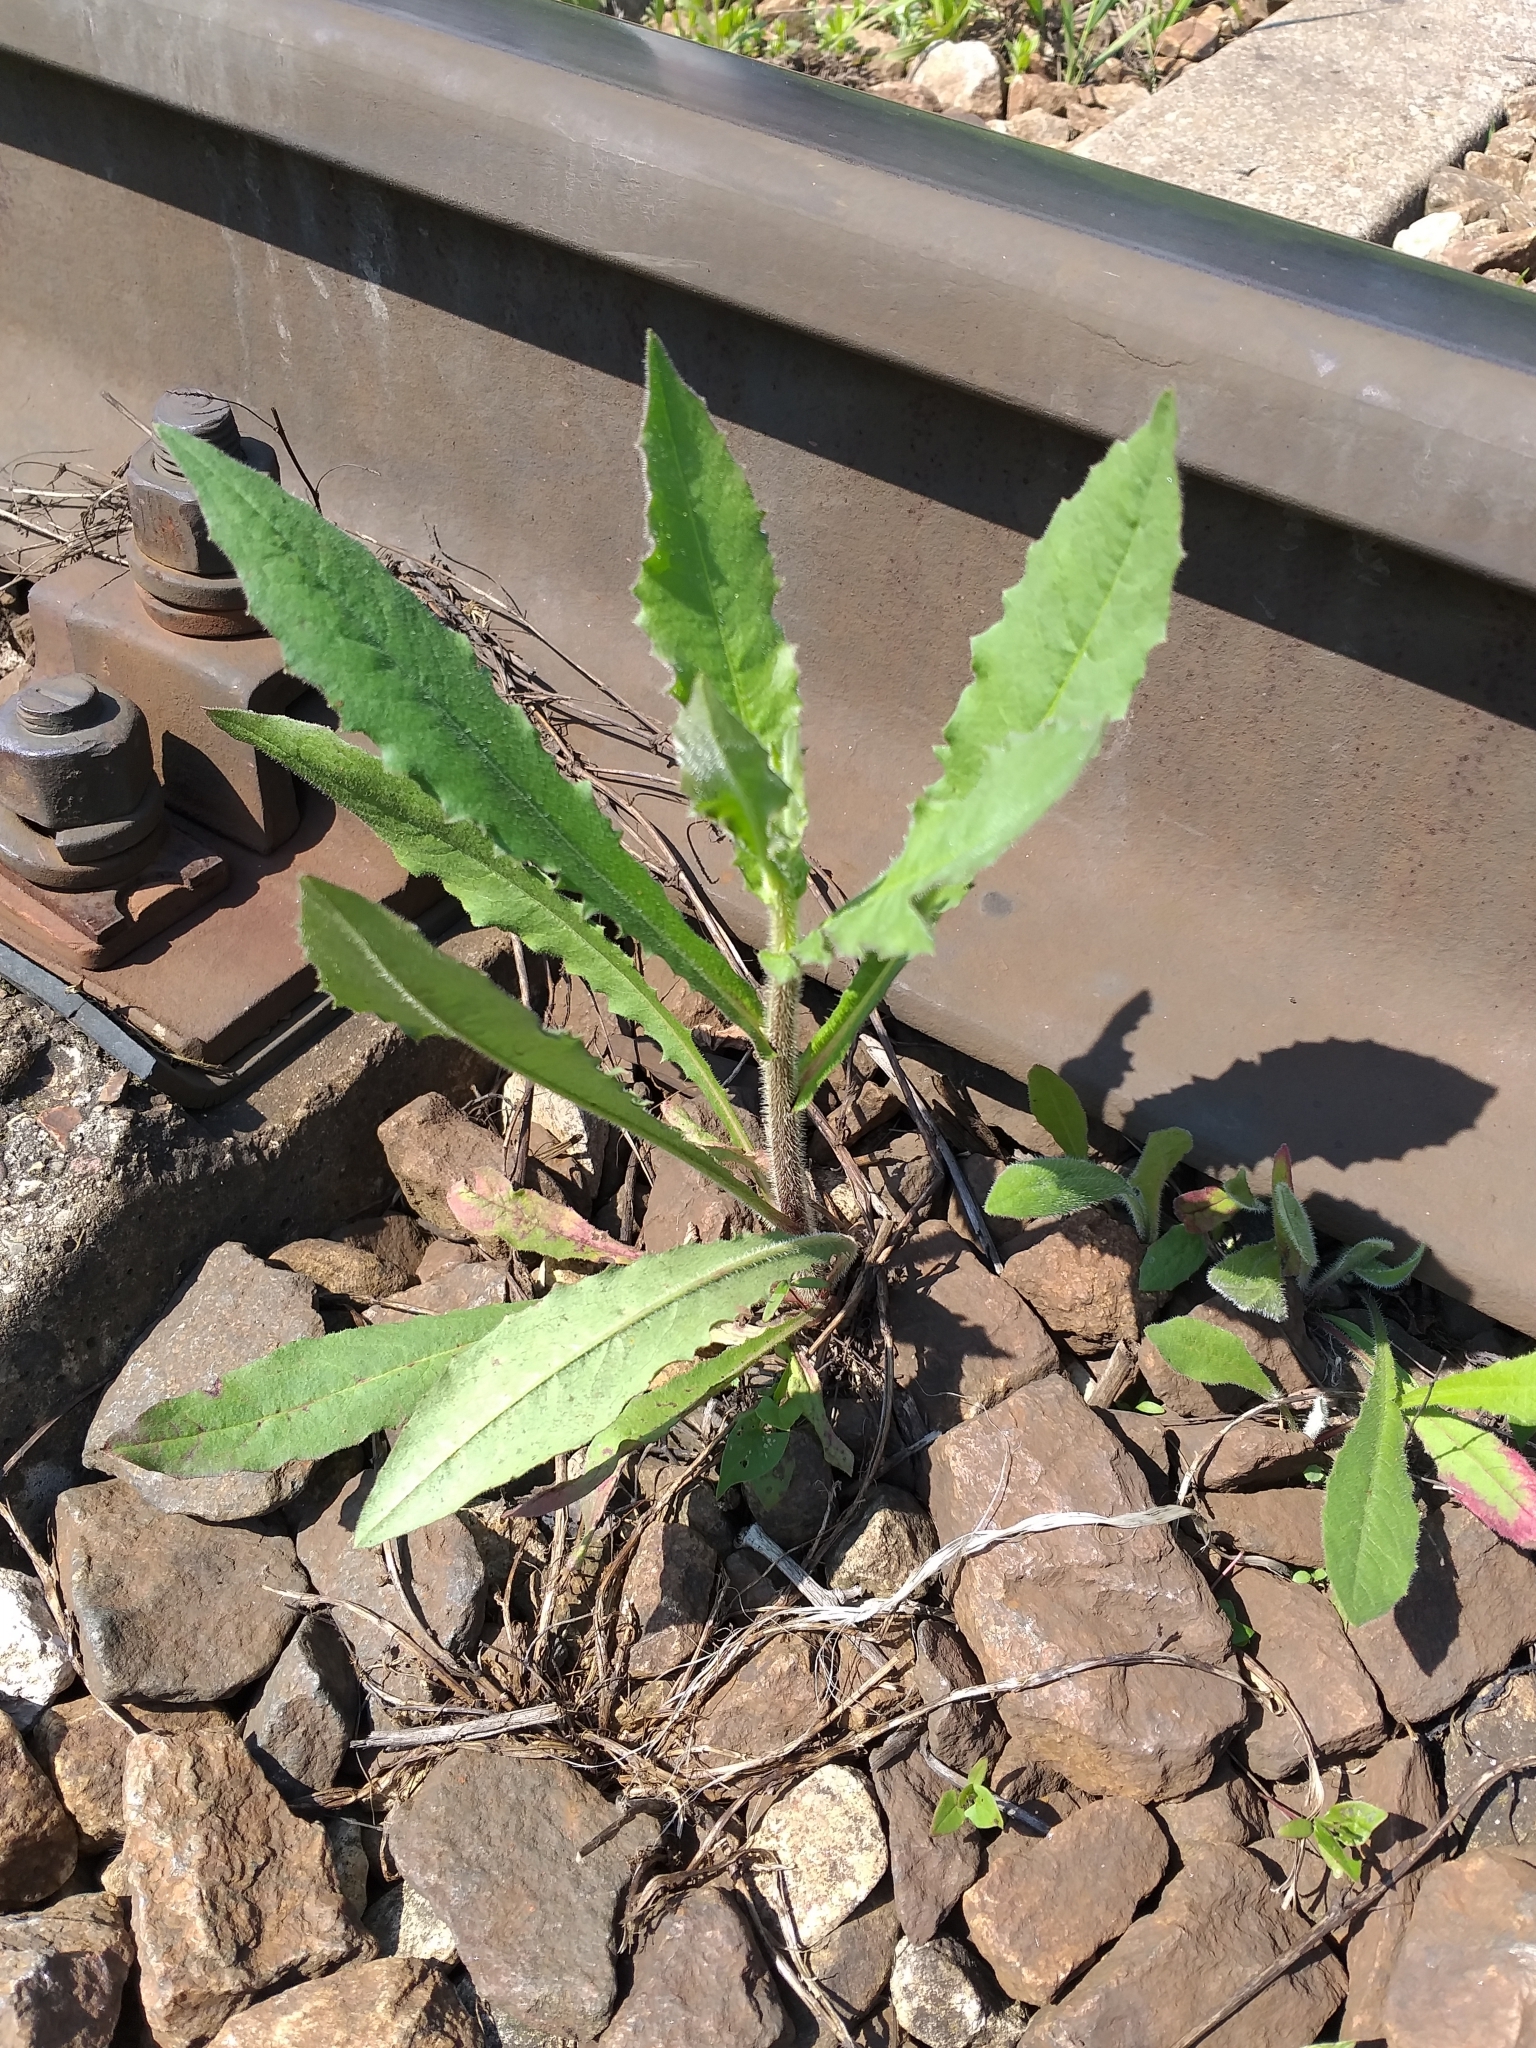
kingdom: Plantae
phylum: Tracheophyta
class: Magnoliopsida
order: Asterales
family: Asteraceae
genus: Picris
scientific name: Picris hieracioides
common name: Hawkweed oxtongue
